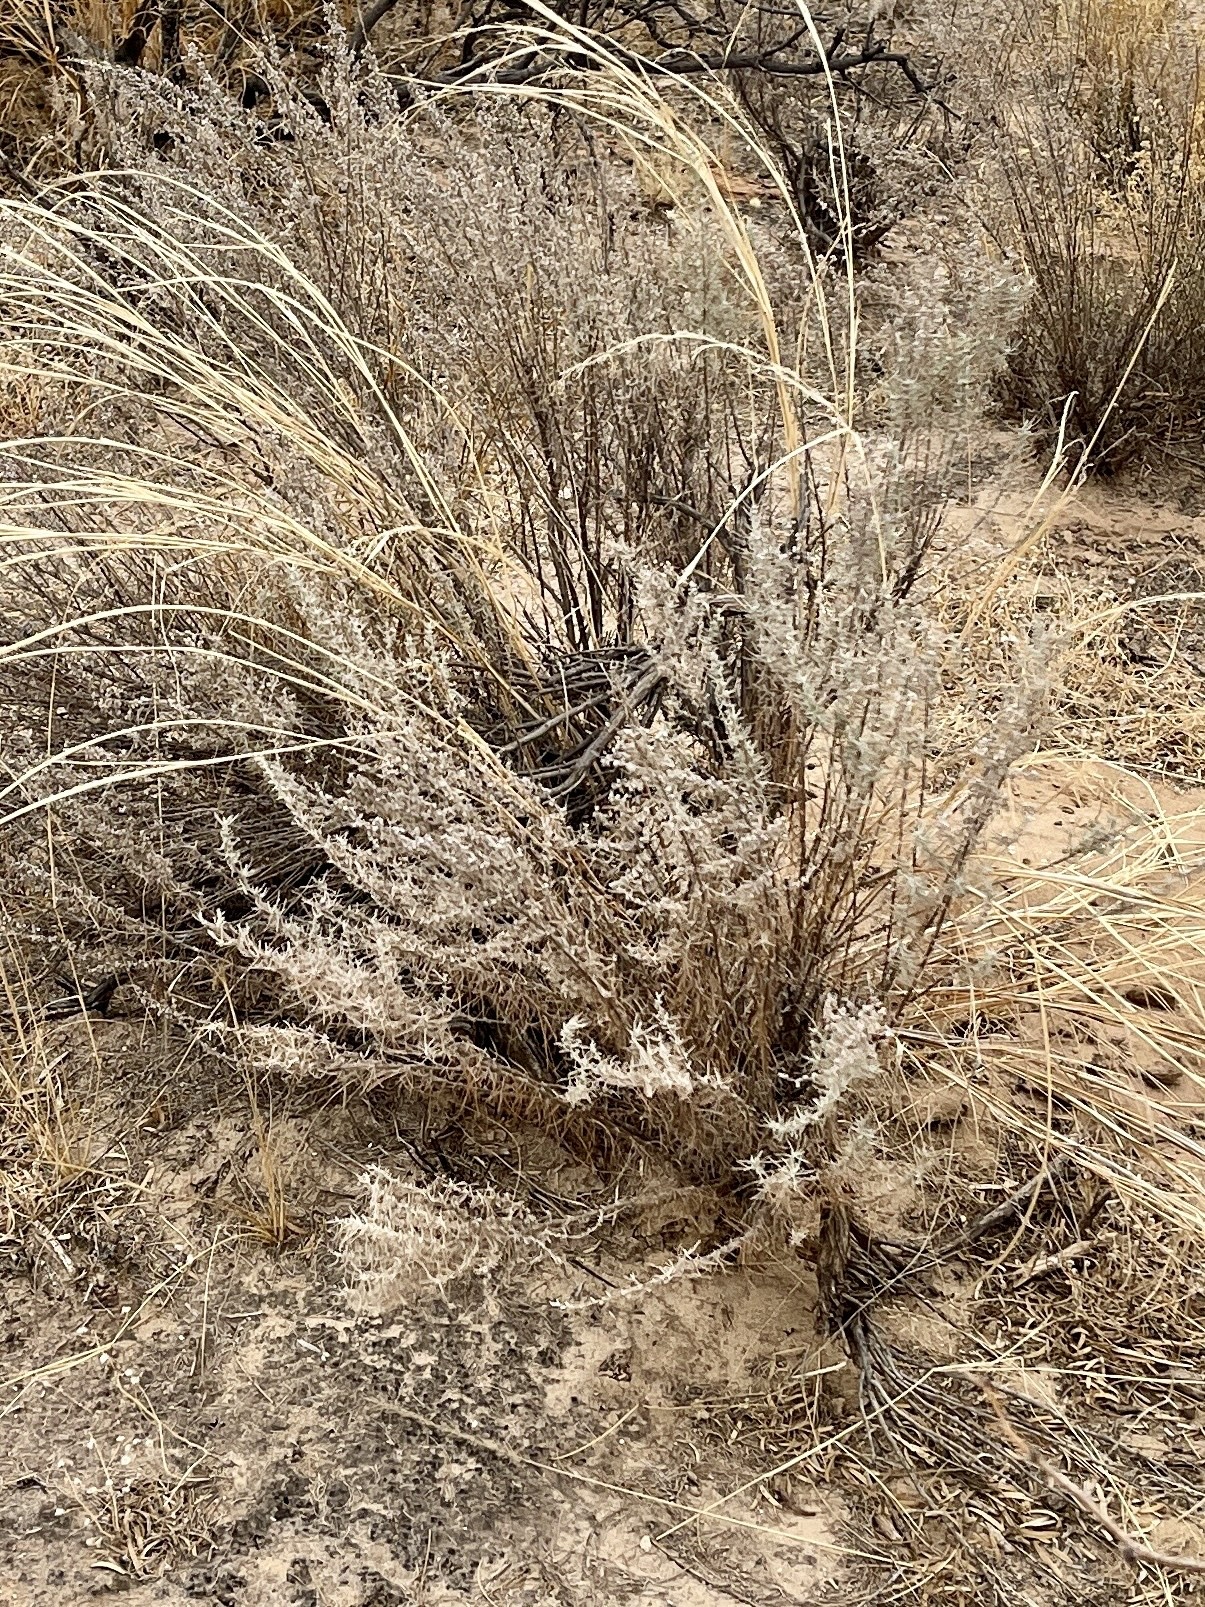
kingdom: Plantae
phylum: Tracheophyta
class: Magnoliopsida
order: Asterales
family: Asteraceae
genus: Artemisia
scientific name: Artemisia filifolia
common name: Sand-sage
